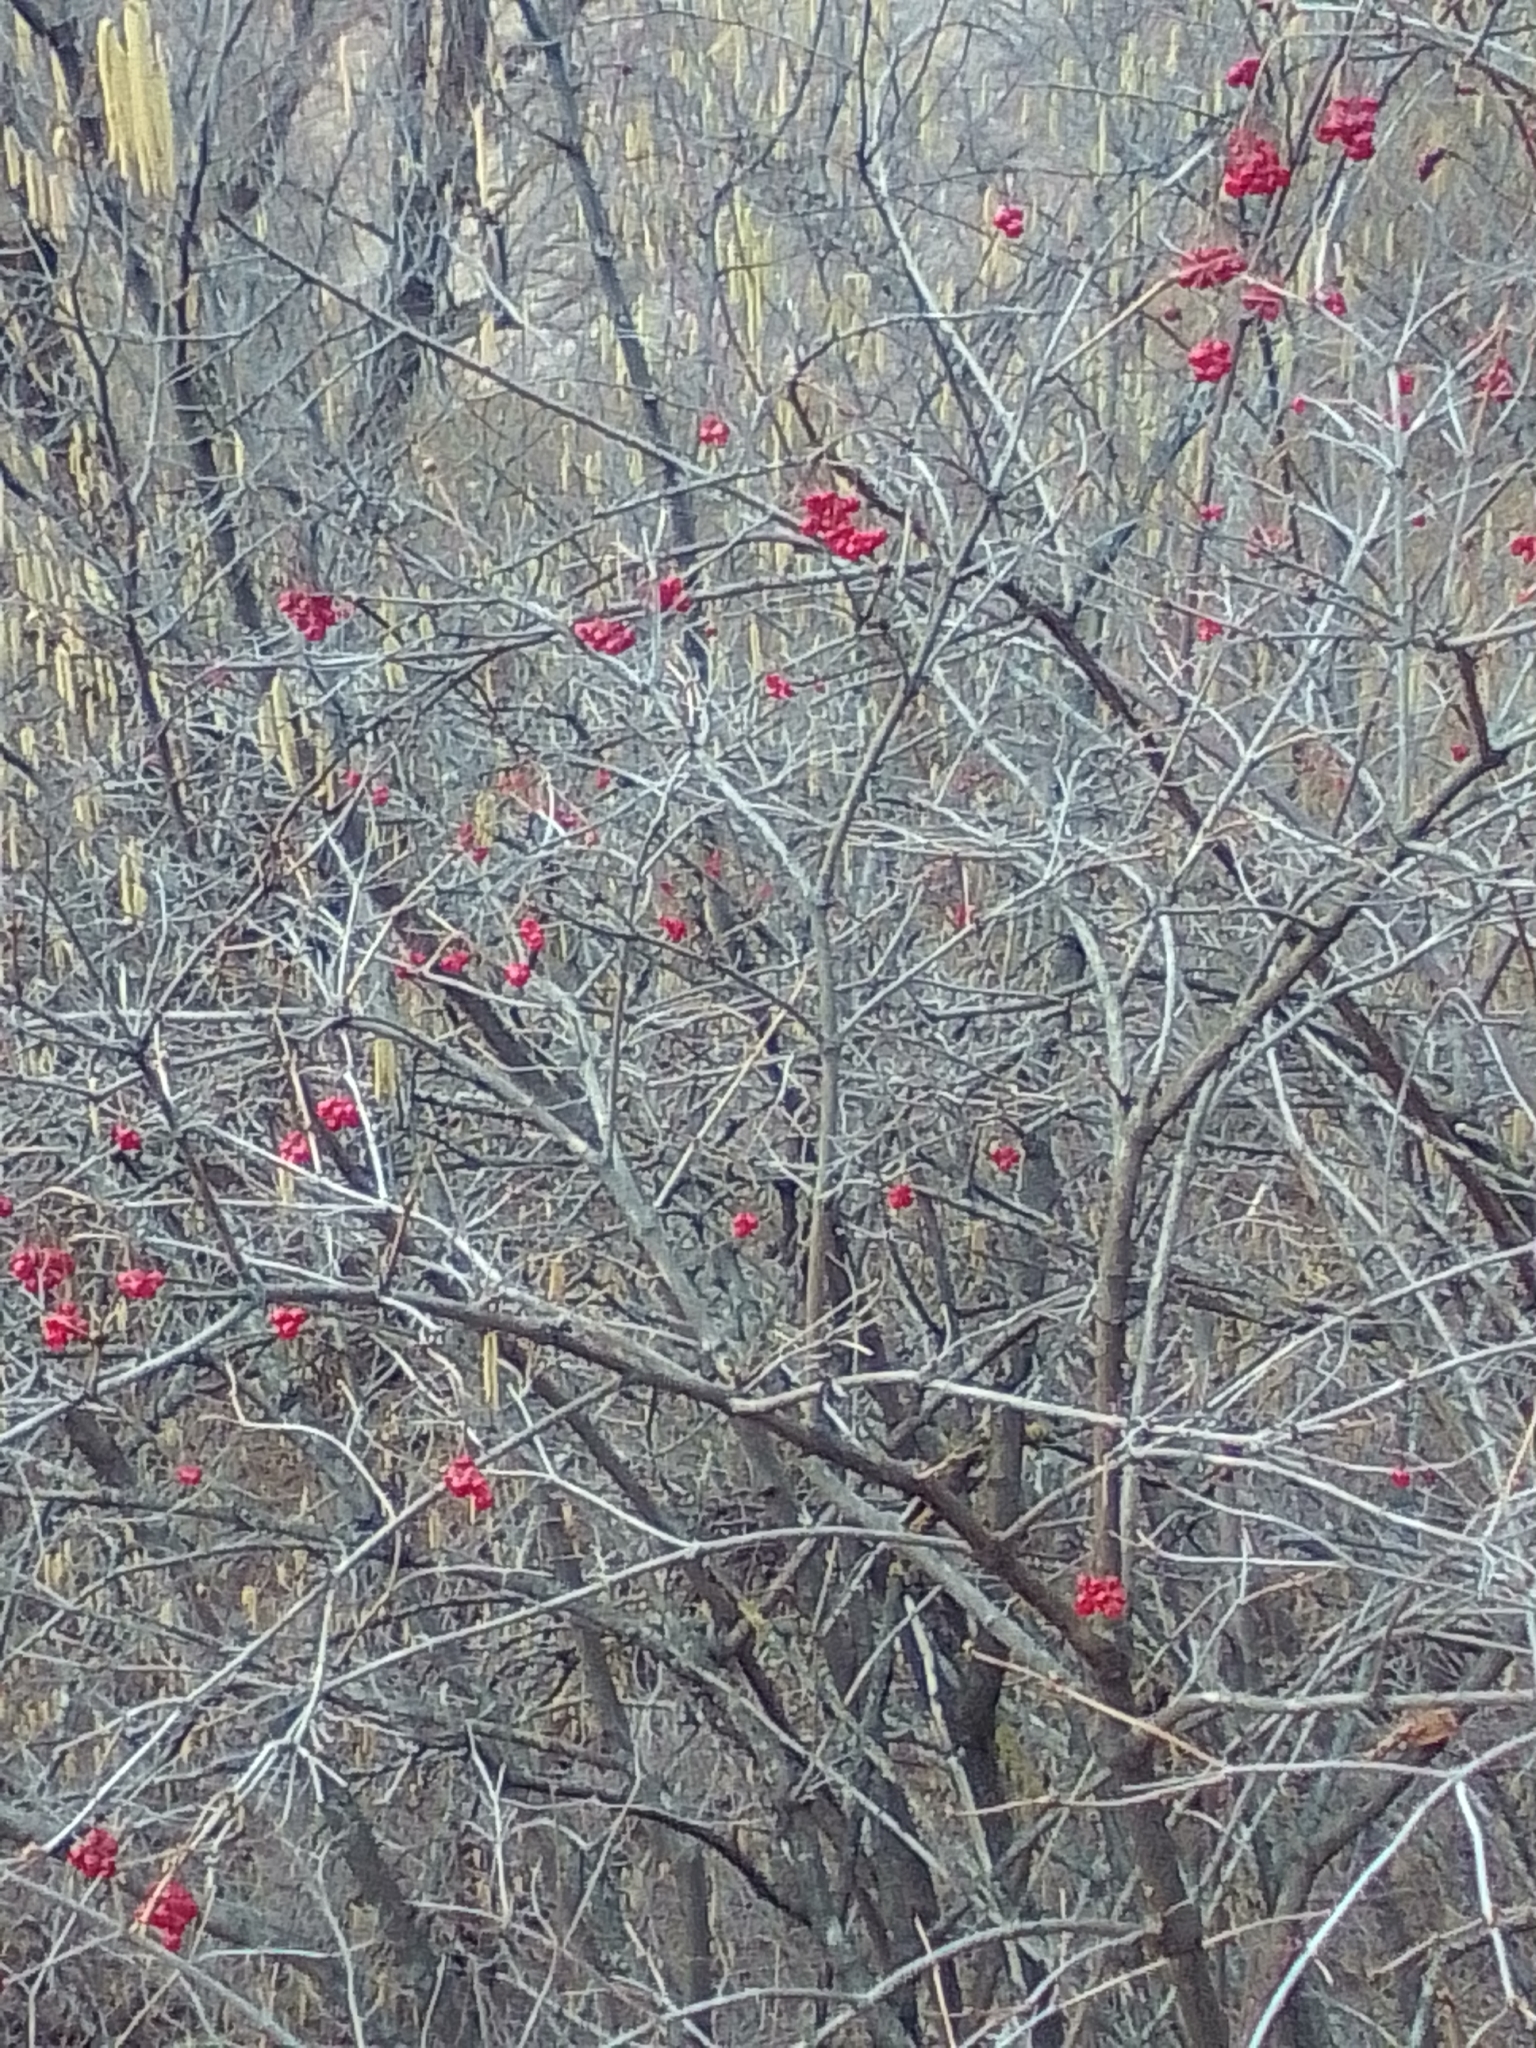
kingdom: Plantae
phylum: Tracheophyta
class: Magnoliopsida
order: Dipsacales
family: Viburnaceae
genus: Viburnum
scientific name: Viburnum opulus
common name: Guelder-rose
